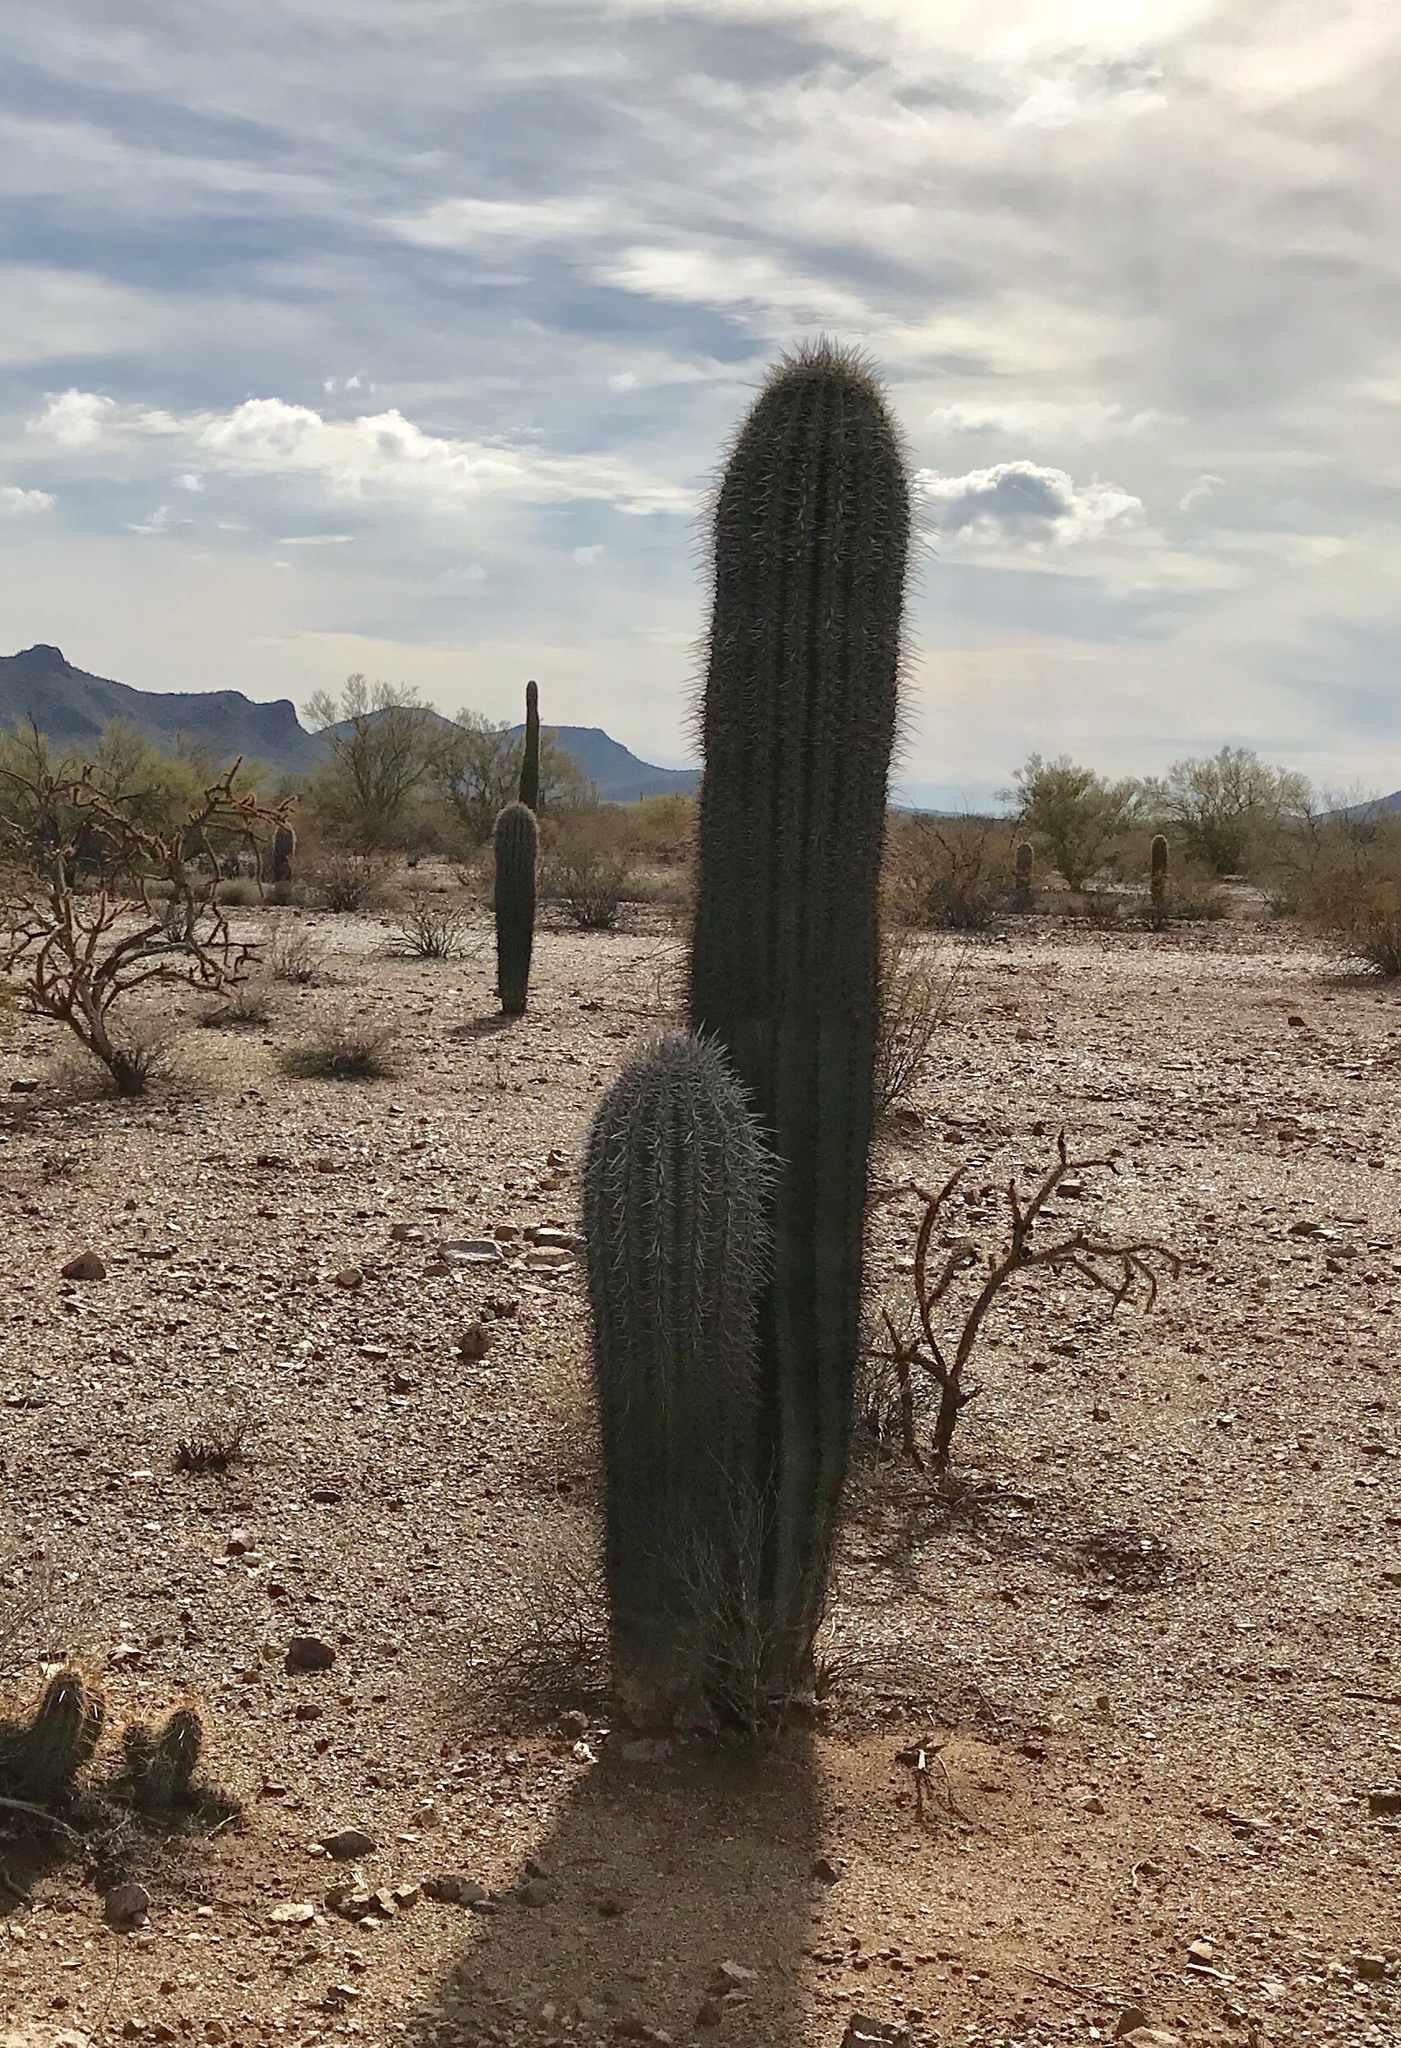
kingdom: Plantae
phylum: Tracheophyta
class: Magnoliopsida
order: Caryophyllales
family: Cactaceae
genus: Carnegiea
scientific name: Carnegiea gigantea
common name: Saguaro
